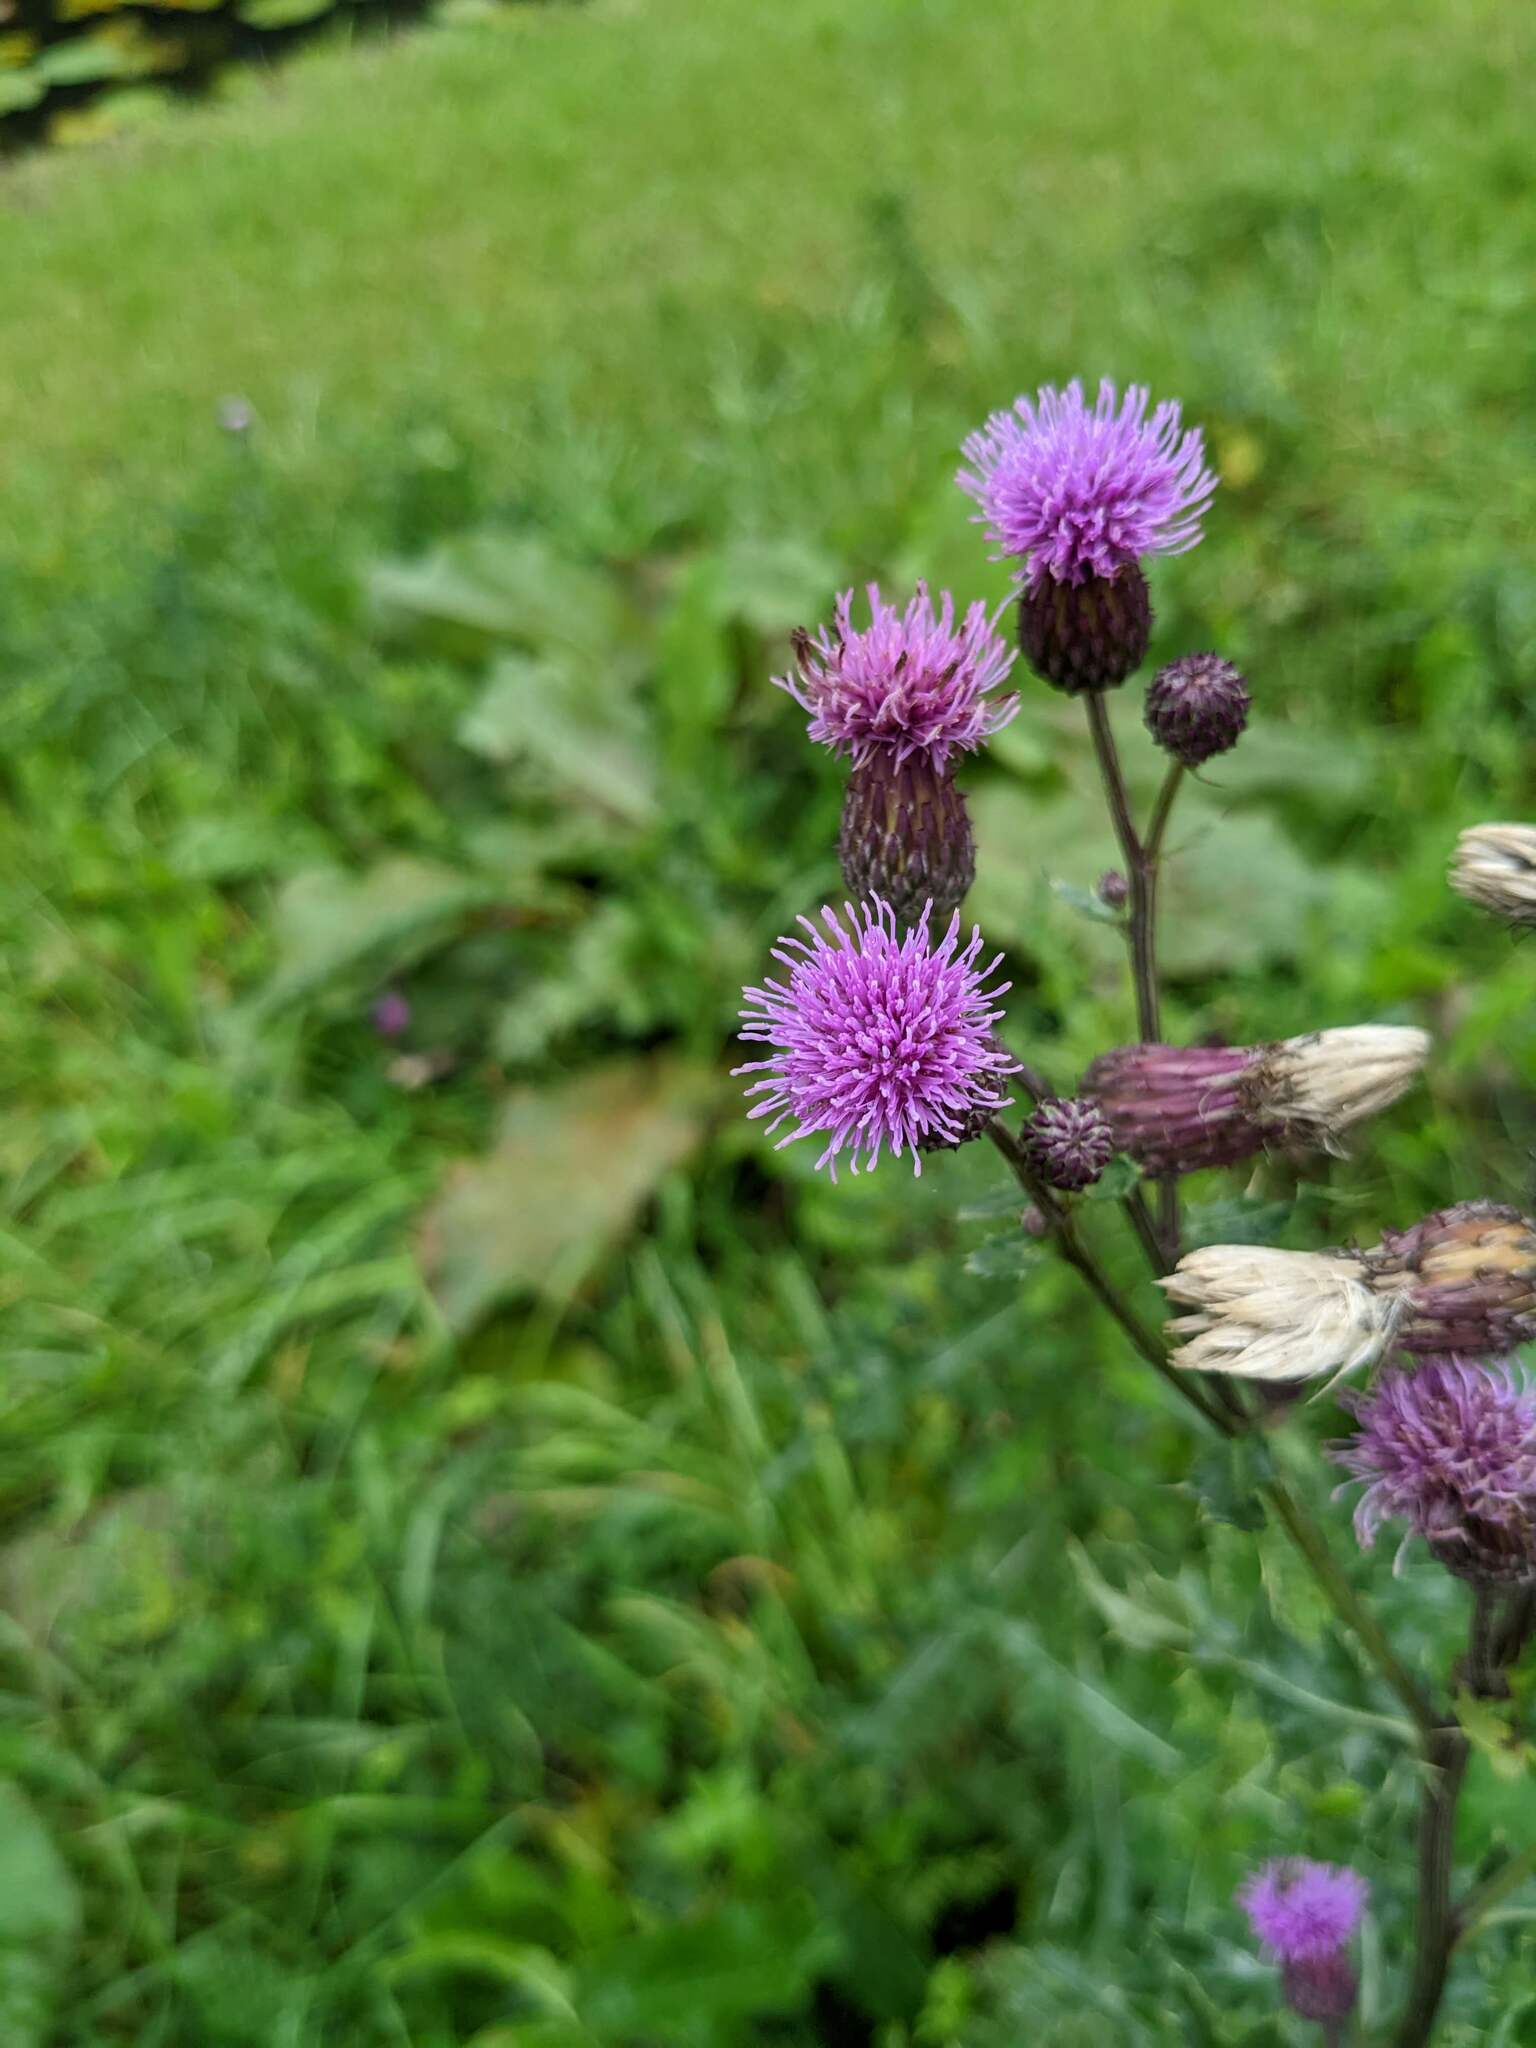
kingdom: Plantae
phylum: Tracheophyta
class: Magnoliopsida
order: Asterales
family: Asteraceae
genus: Cirsium
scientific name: Cirsium arvense
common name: Creeping thistle
